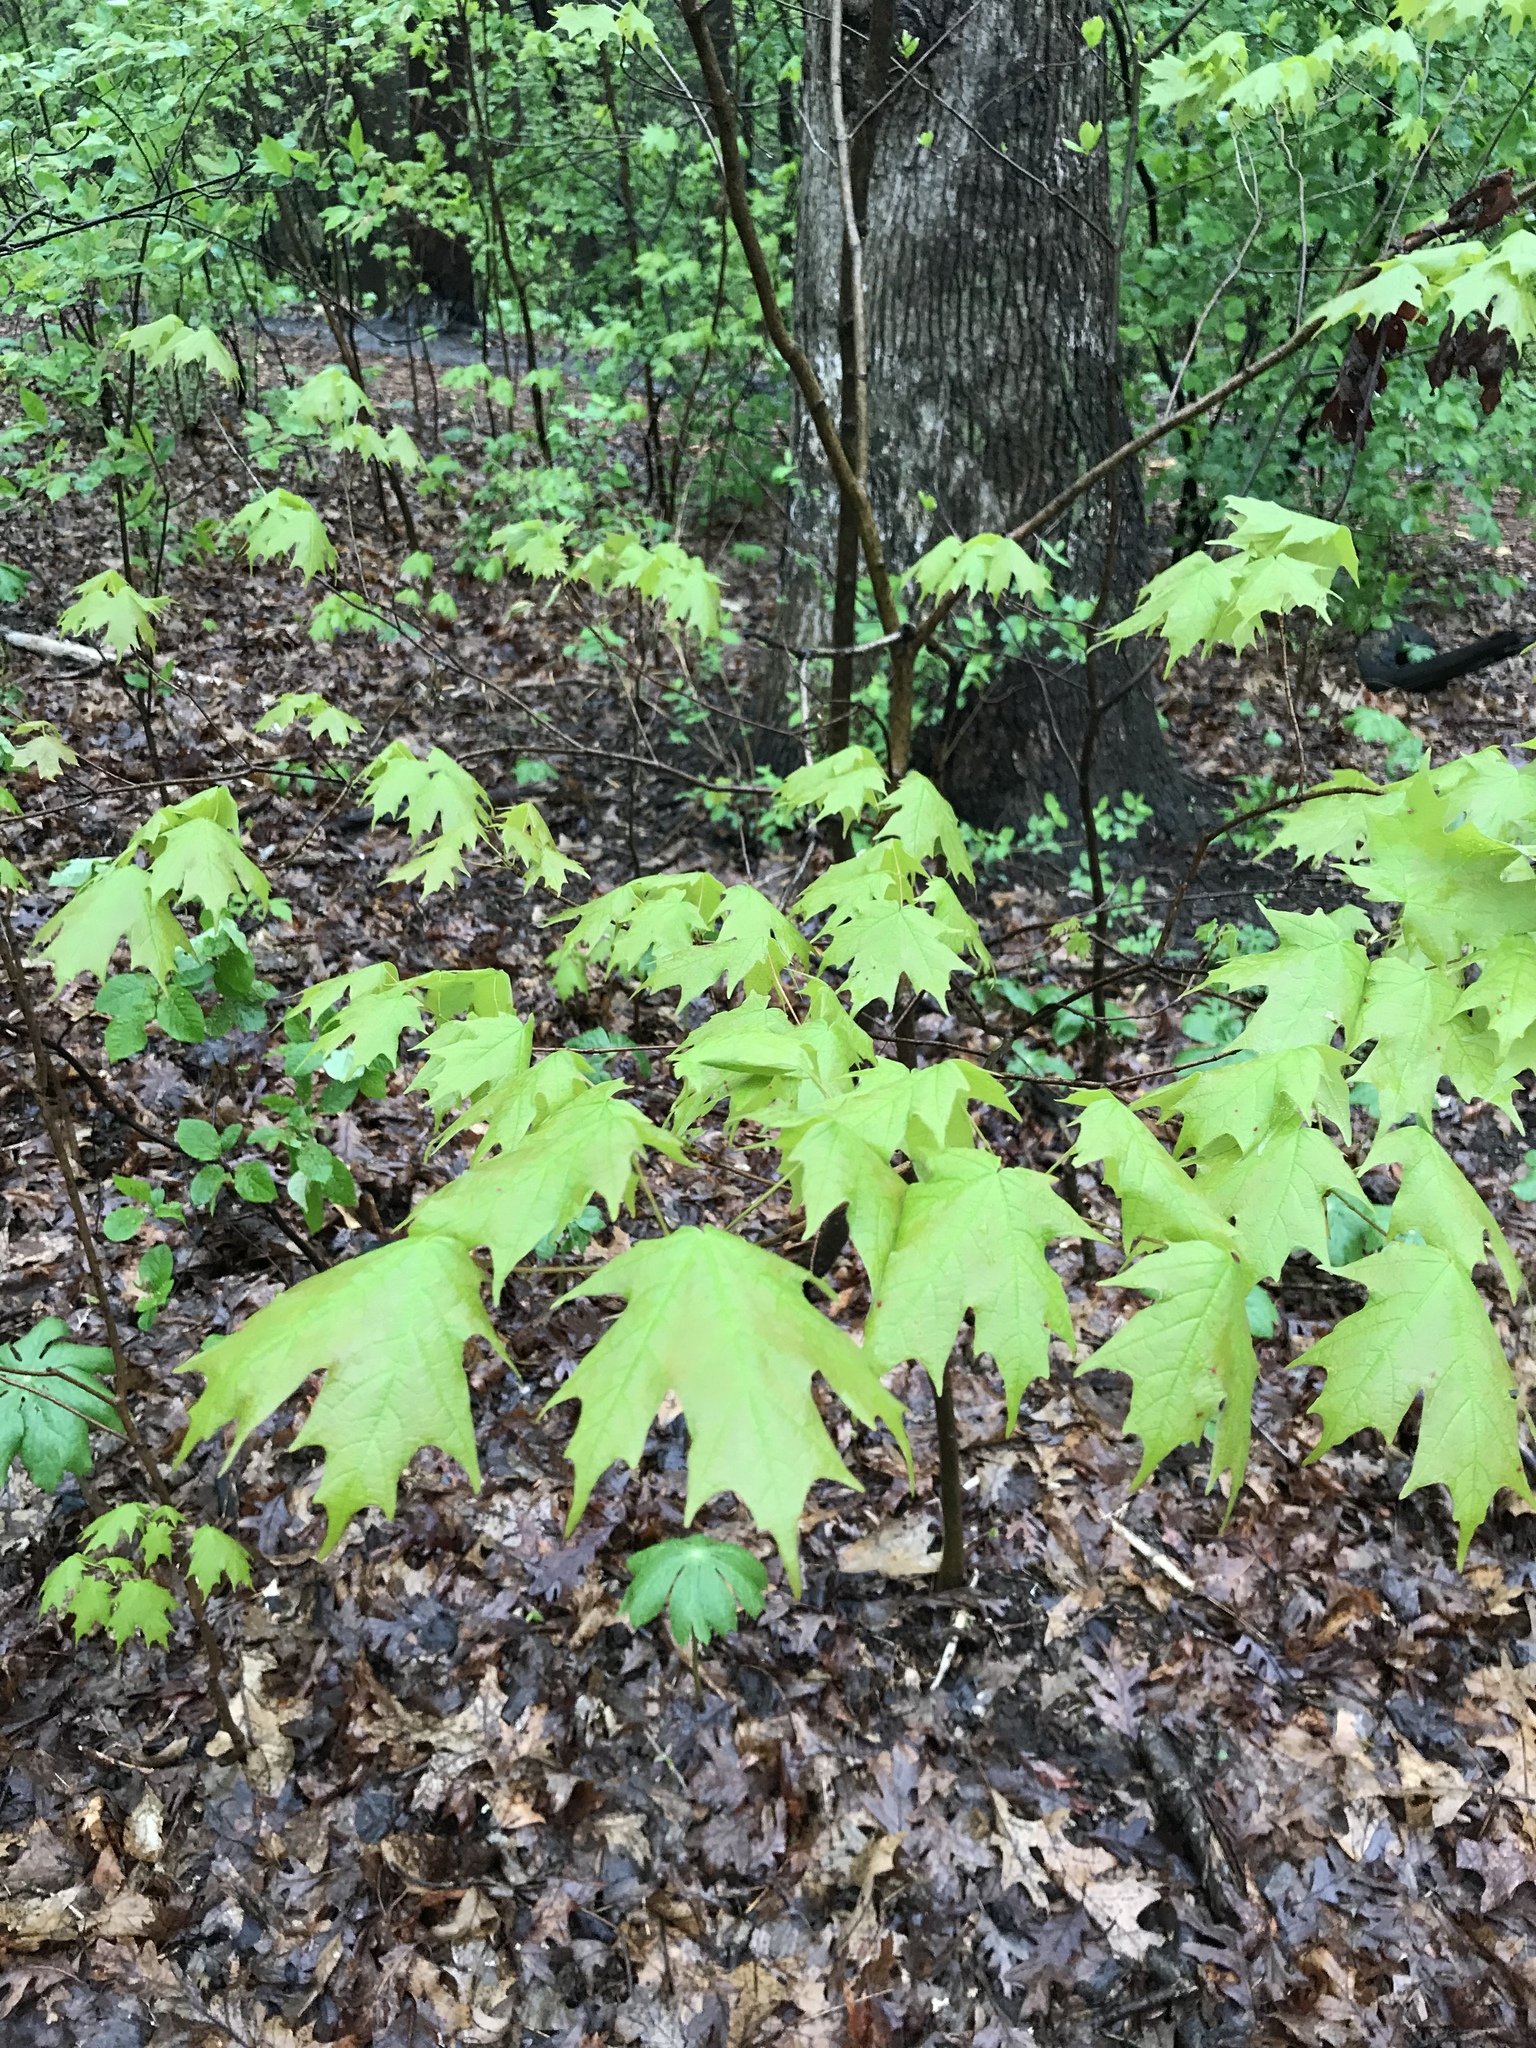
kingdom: Plantae
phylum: Tracheophyta
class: Magnoliopsida
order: Sapindales
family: Sapindaceae
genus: Acer
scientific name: Acer saccharum
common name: Sugar maple
